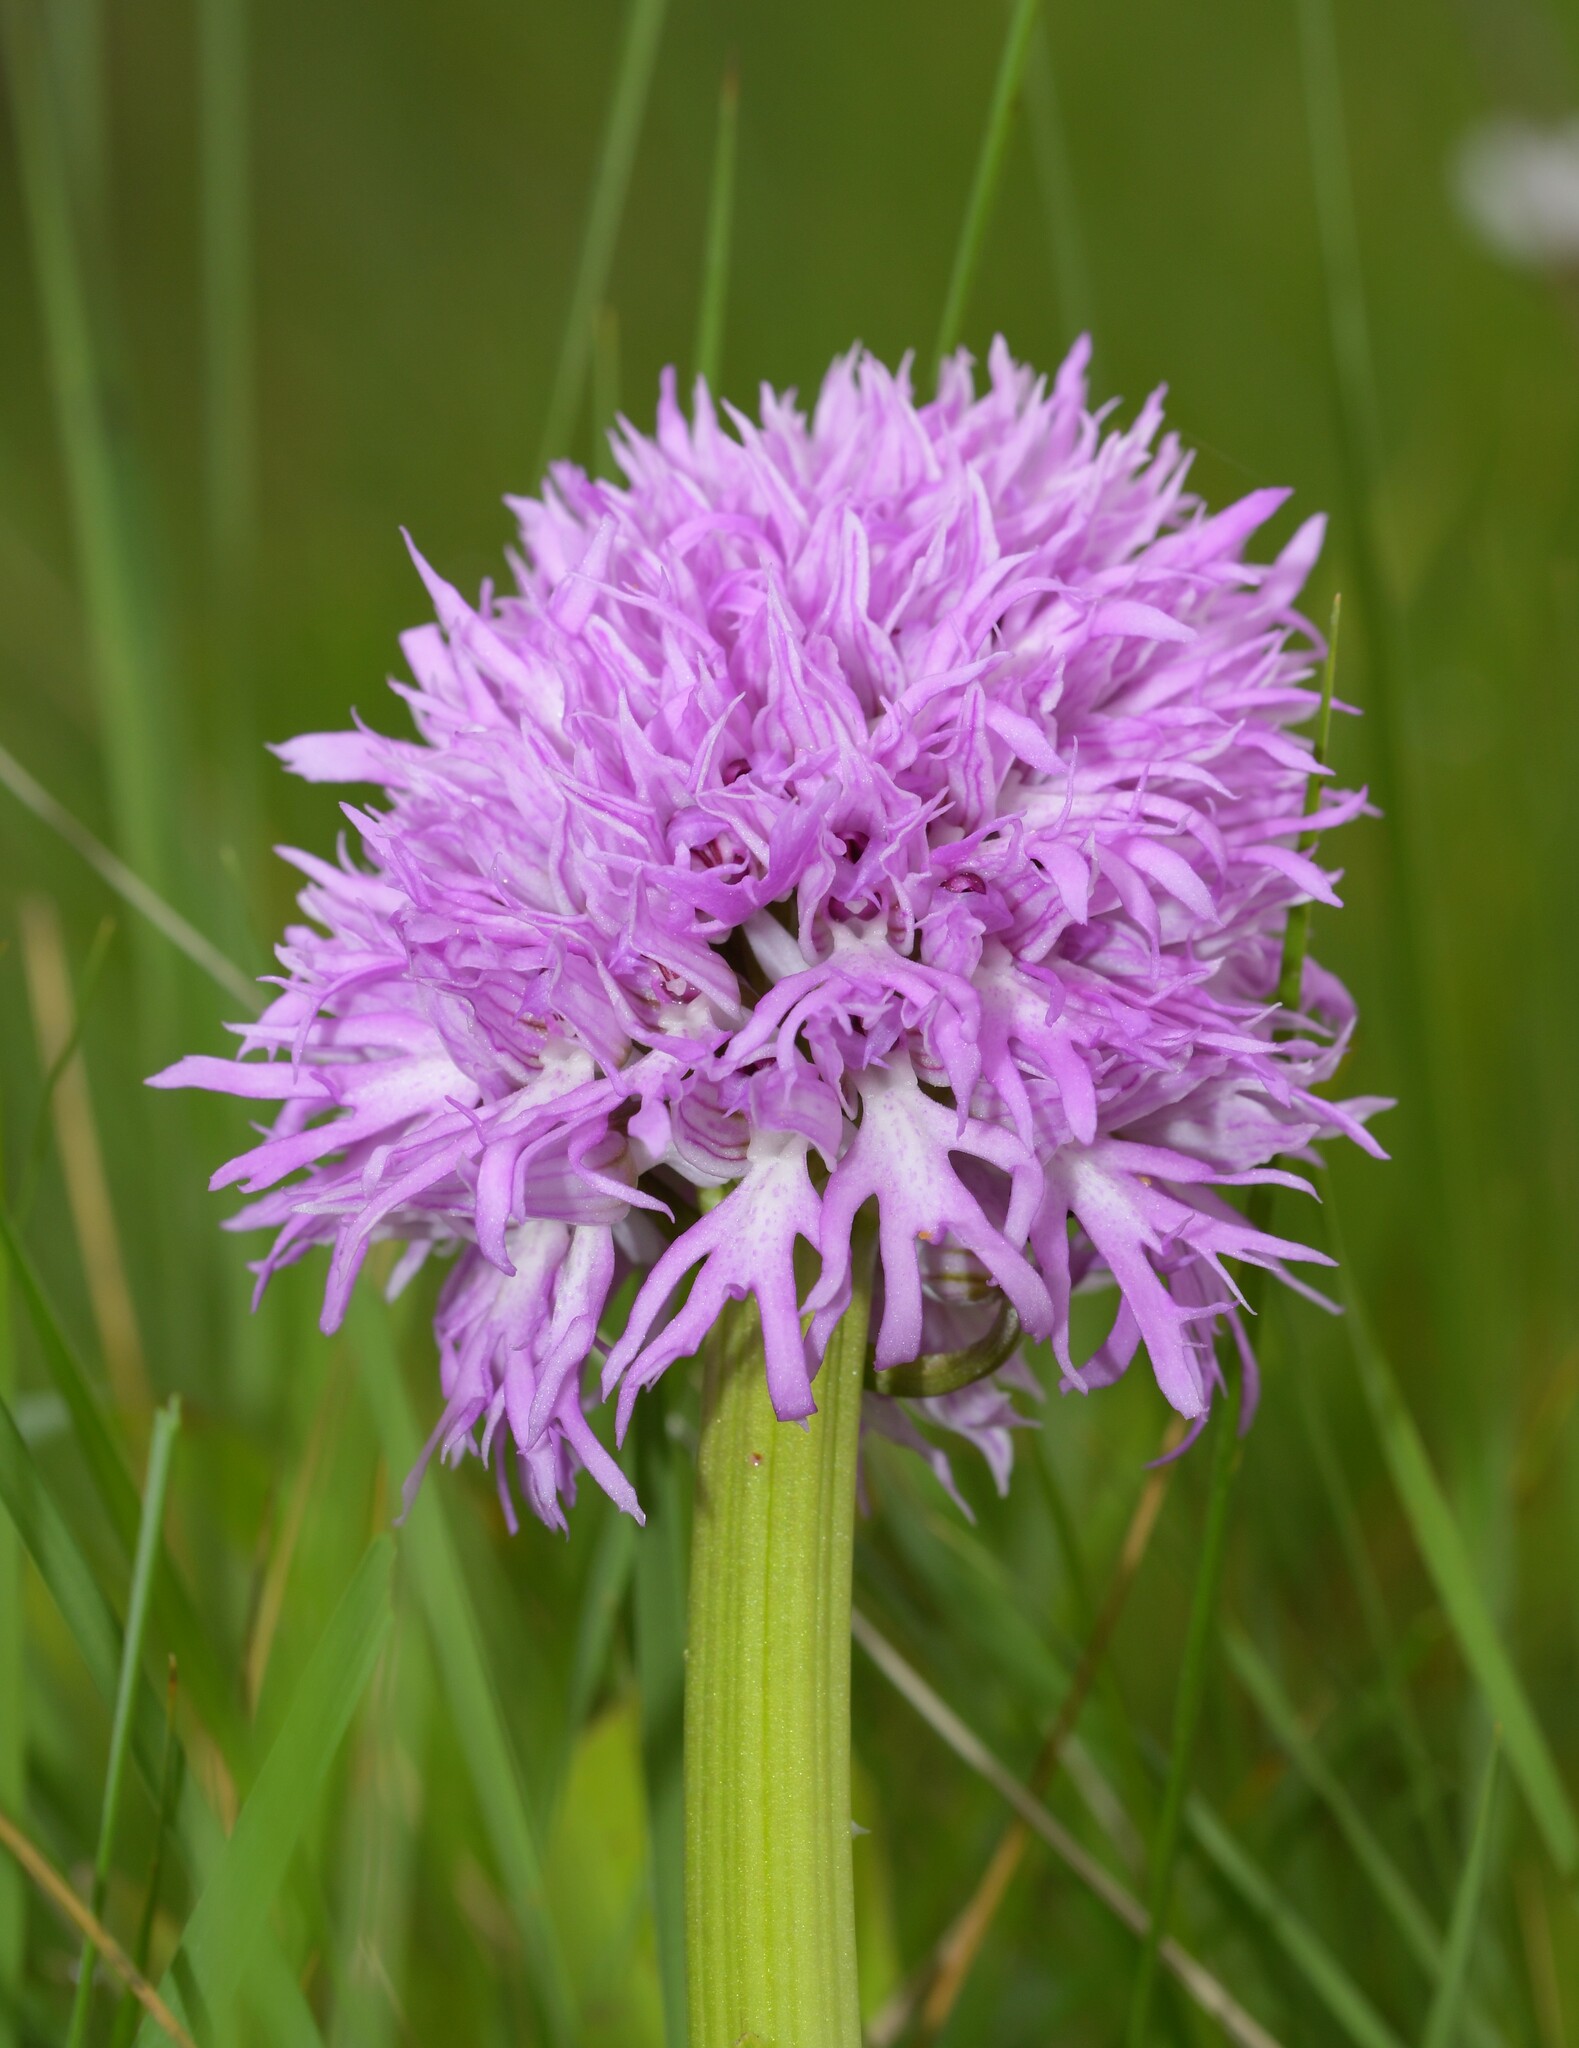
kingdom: Plantae
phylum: Tracheophyta
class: Liliopsida
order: Asparagales
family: Orchidaceae
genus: Orchis
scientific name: Orchis italica
